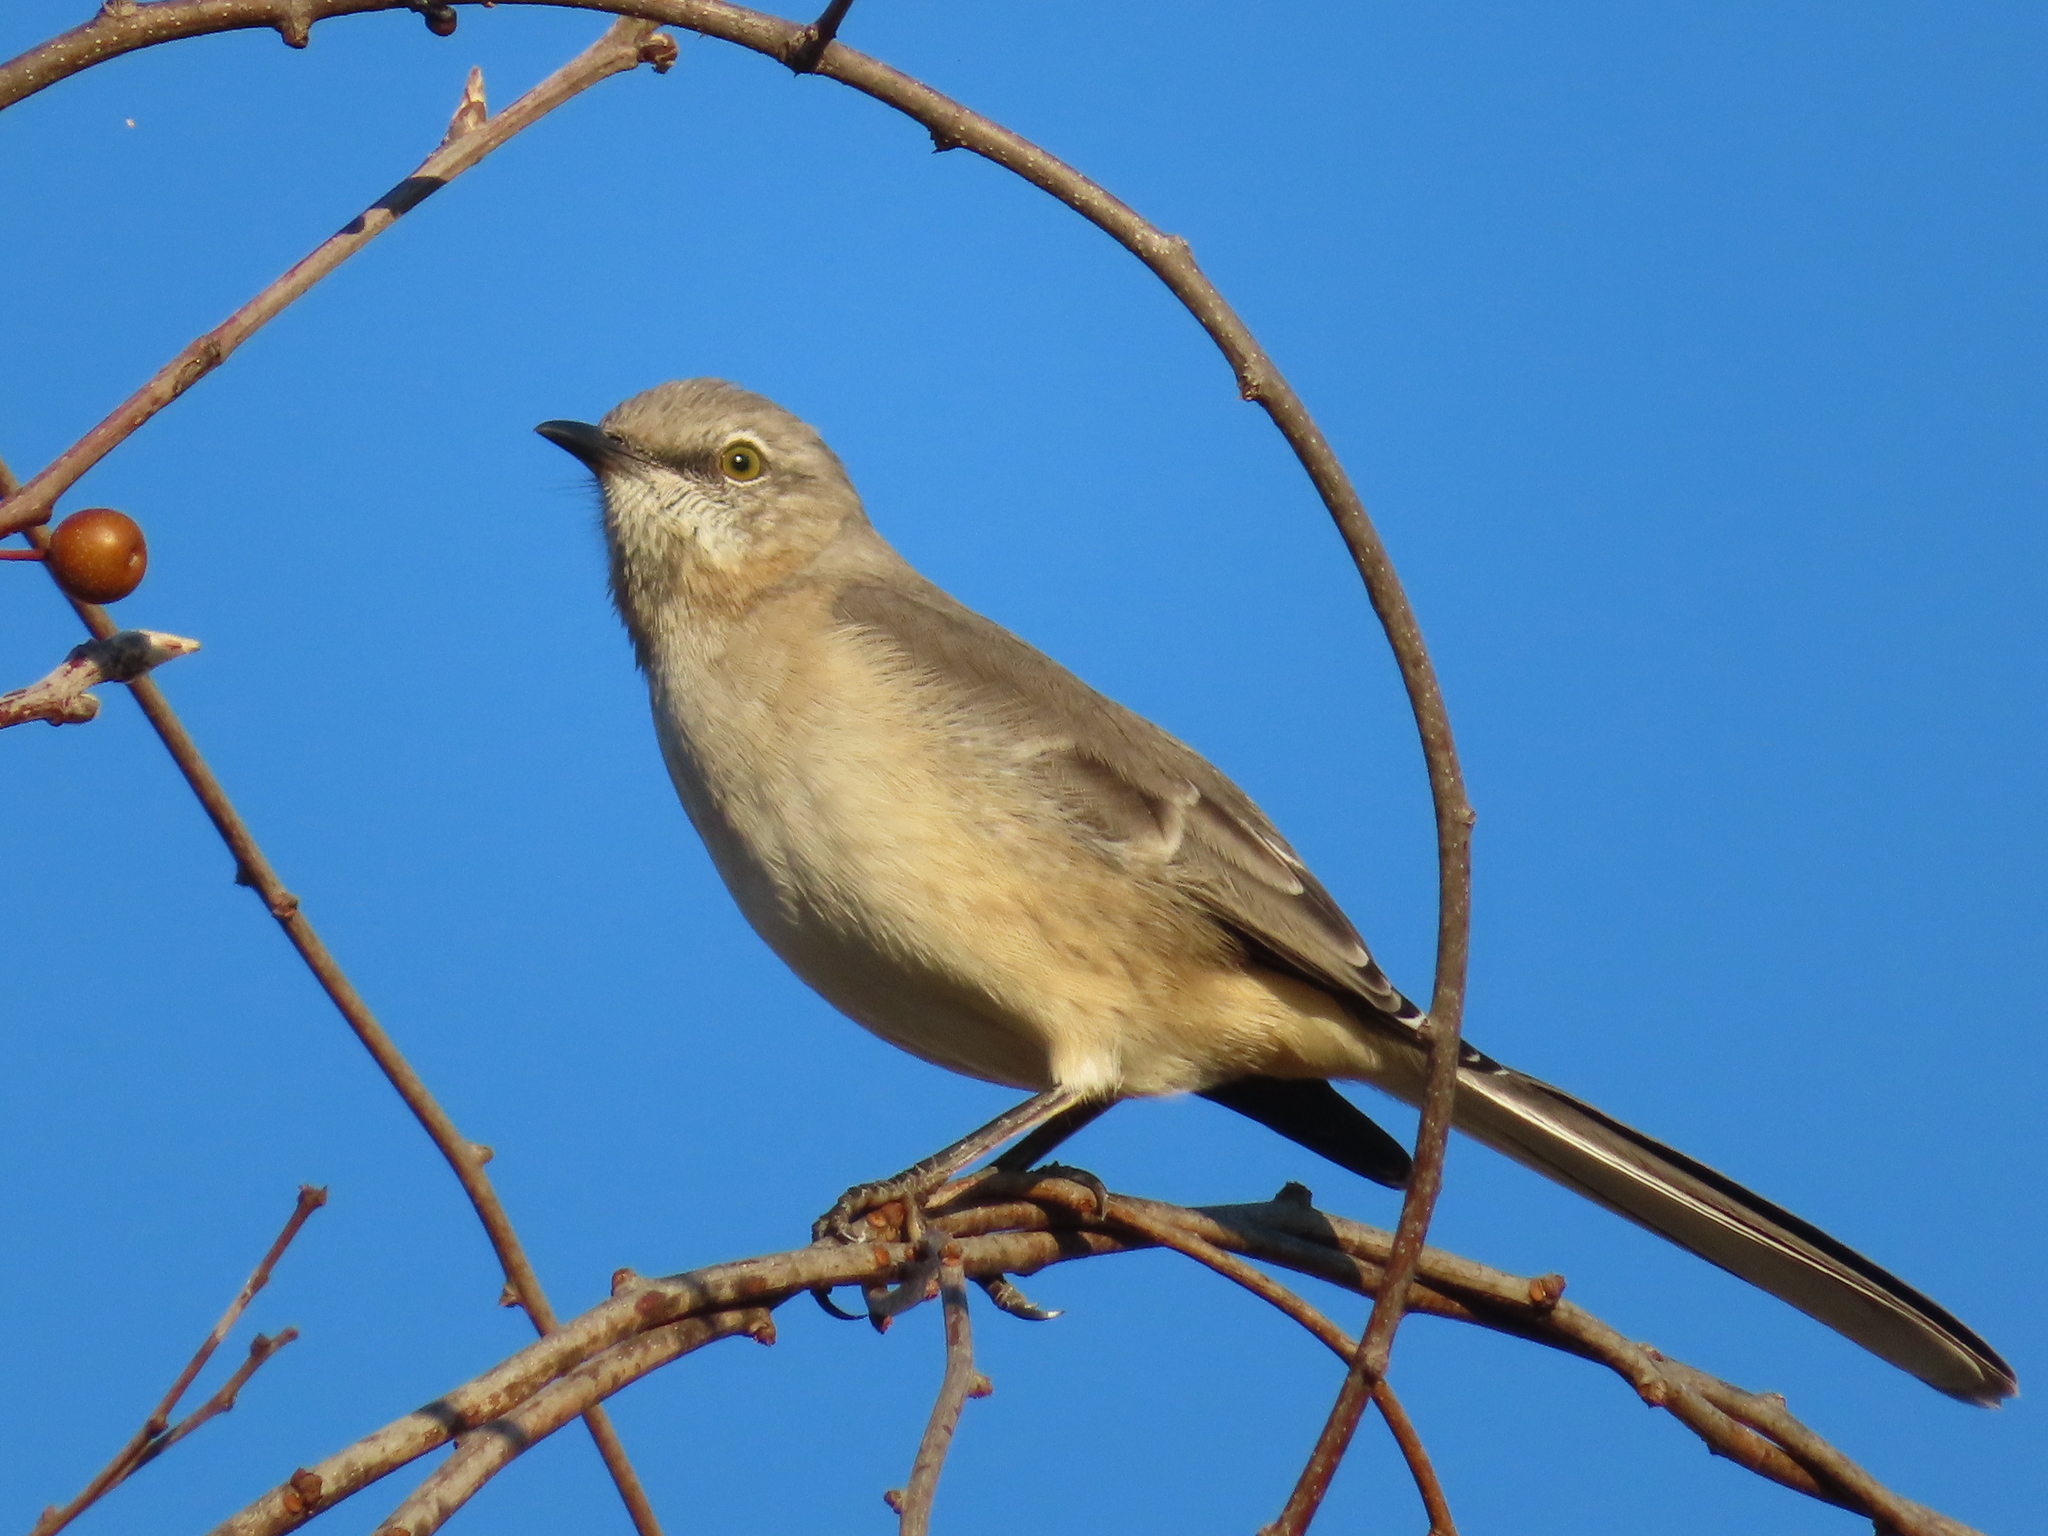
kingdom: Animalia
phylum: Chordata
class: Aves
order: Passeriformes
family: Mimidae
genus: Mimus
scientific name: Mimus polyglottos
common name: Northern mockingbird
